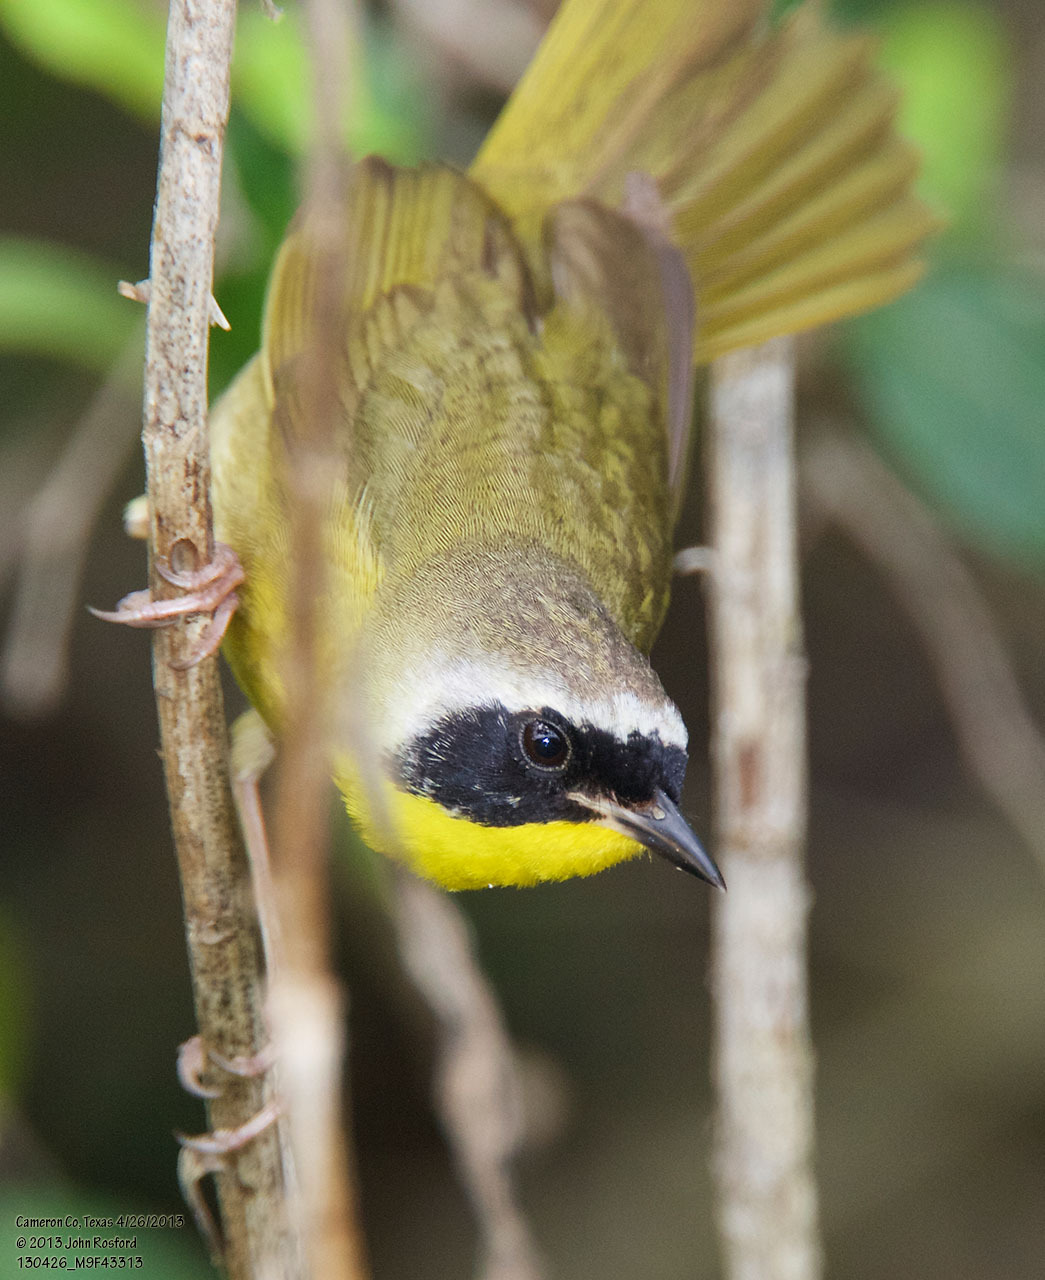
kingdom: Animalia
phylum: Chordata
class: Aves
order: Passeriformes
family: Parulidae
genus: Geothlypis
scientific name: Geothlypis trichas
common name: Common yellowthroat
